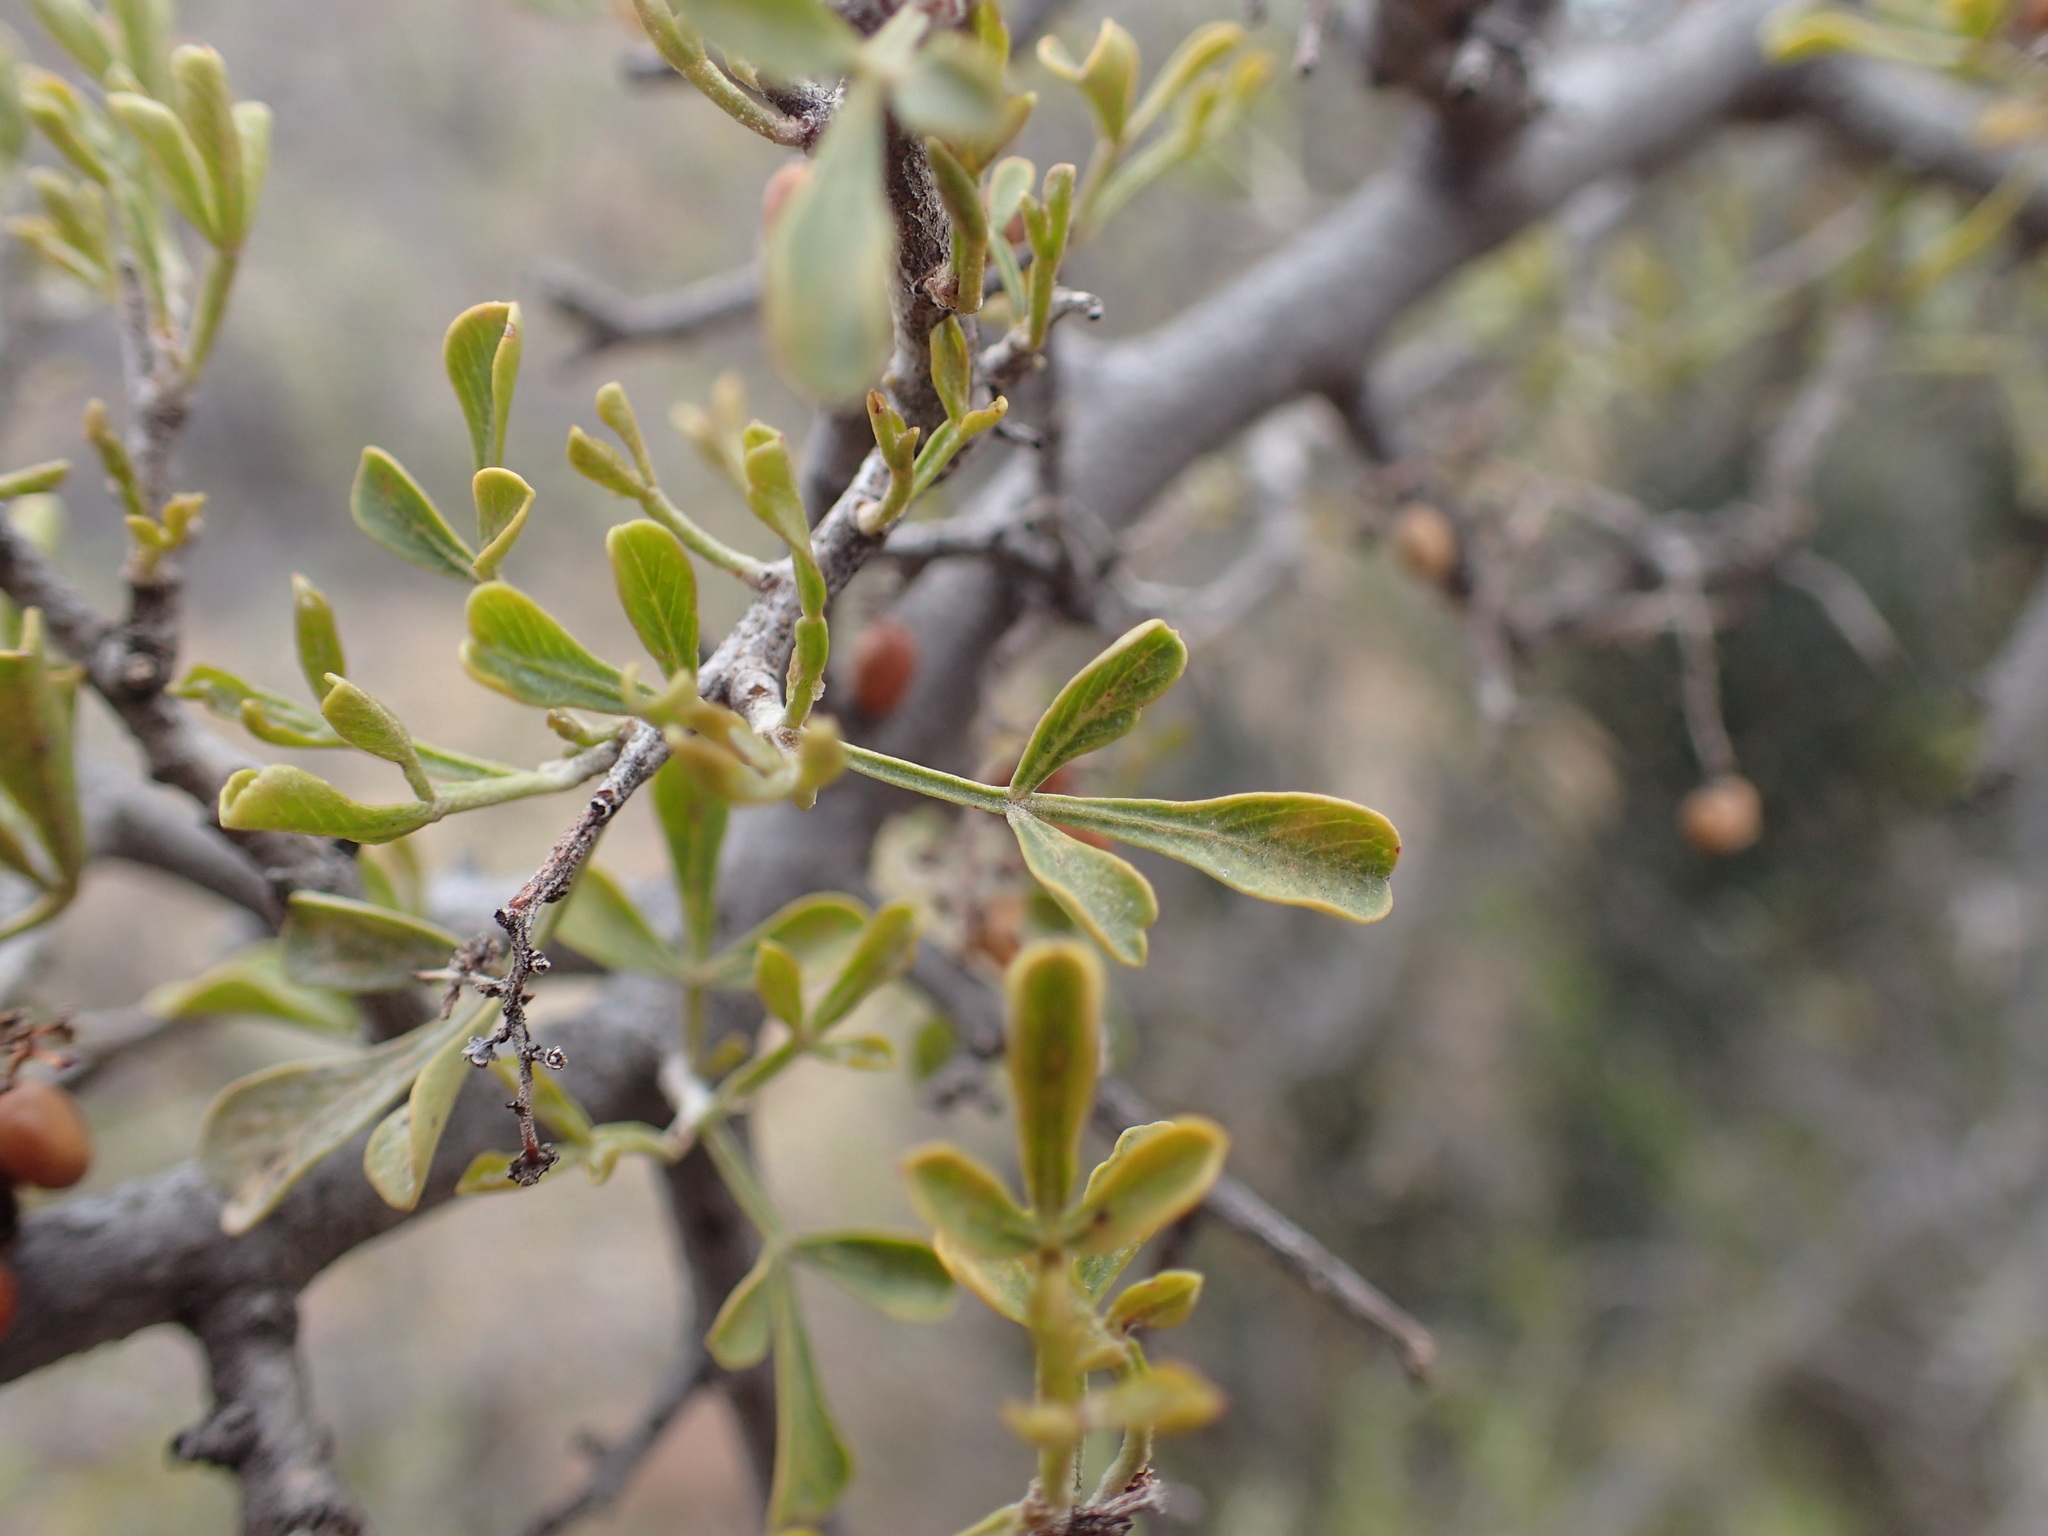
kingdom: Plantae
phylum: Tracheophyta
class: Magnoliopsida
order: Sapindales
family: Anacardiaceae
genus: Searsia
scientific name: Searsia burchellii
